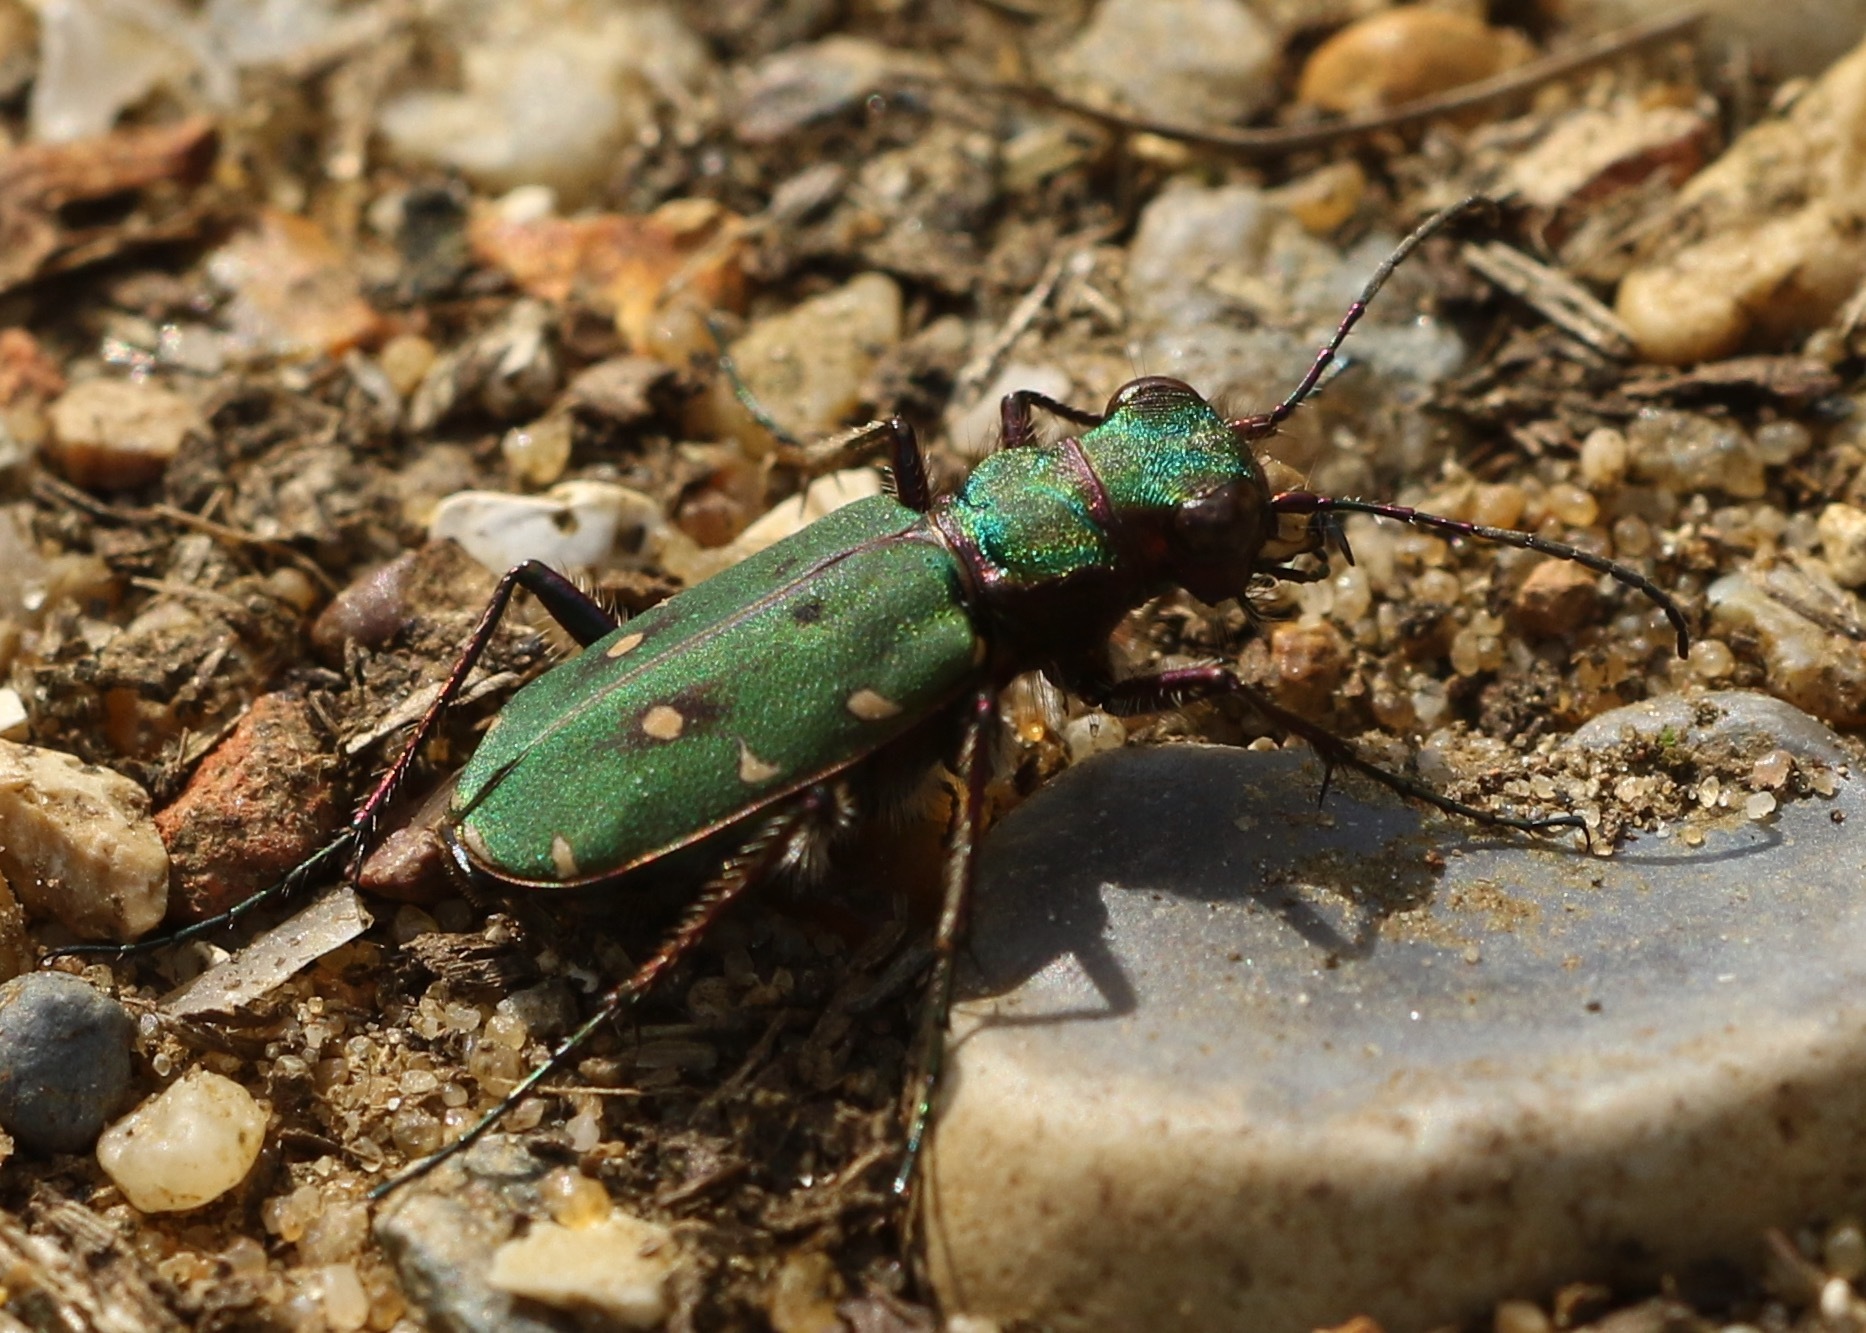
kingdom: Animalia
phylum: Arthropoda
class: Insecta
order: Coleoptera
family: Carabidae
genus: Cicindela
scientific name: Cicindela campestris
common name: Common tiger beetle
